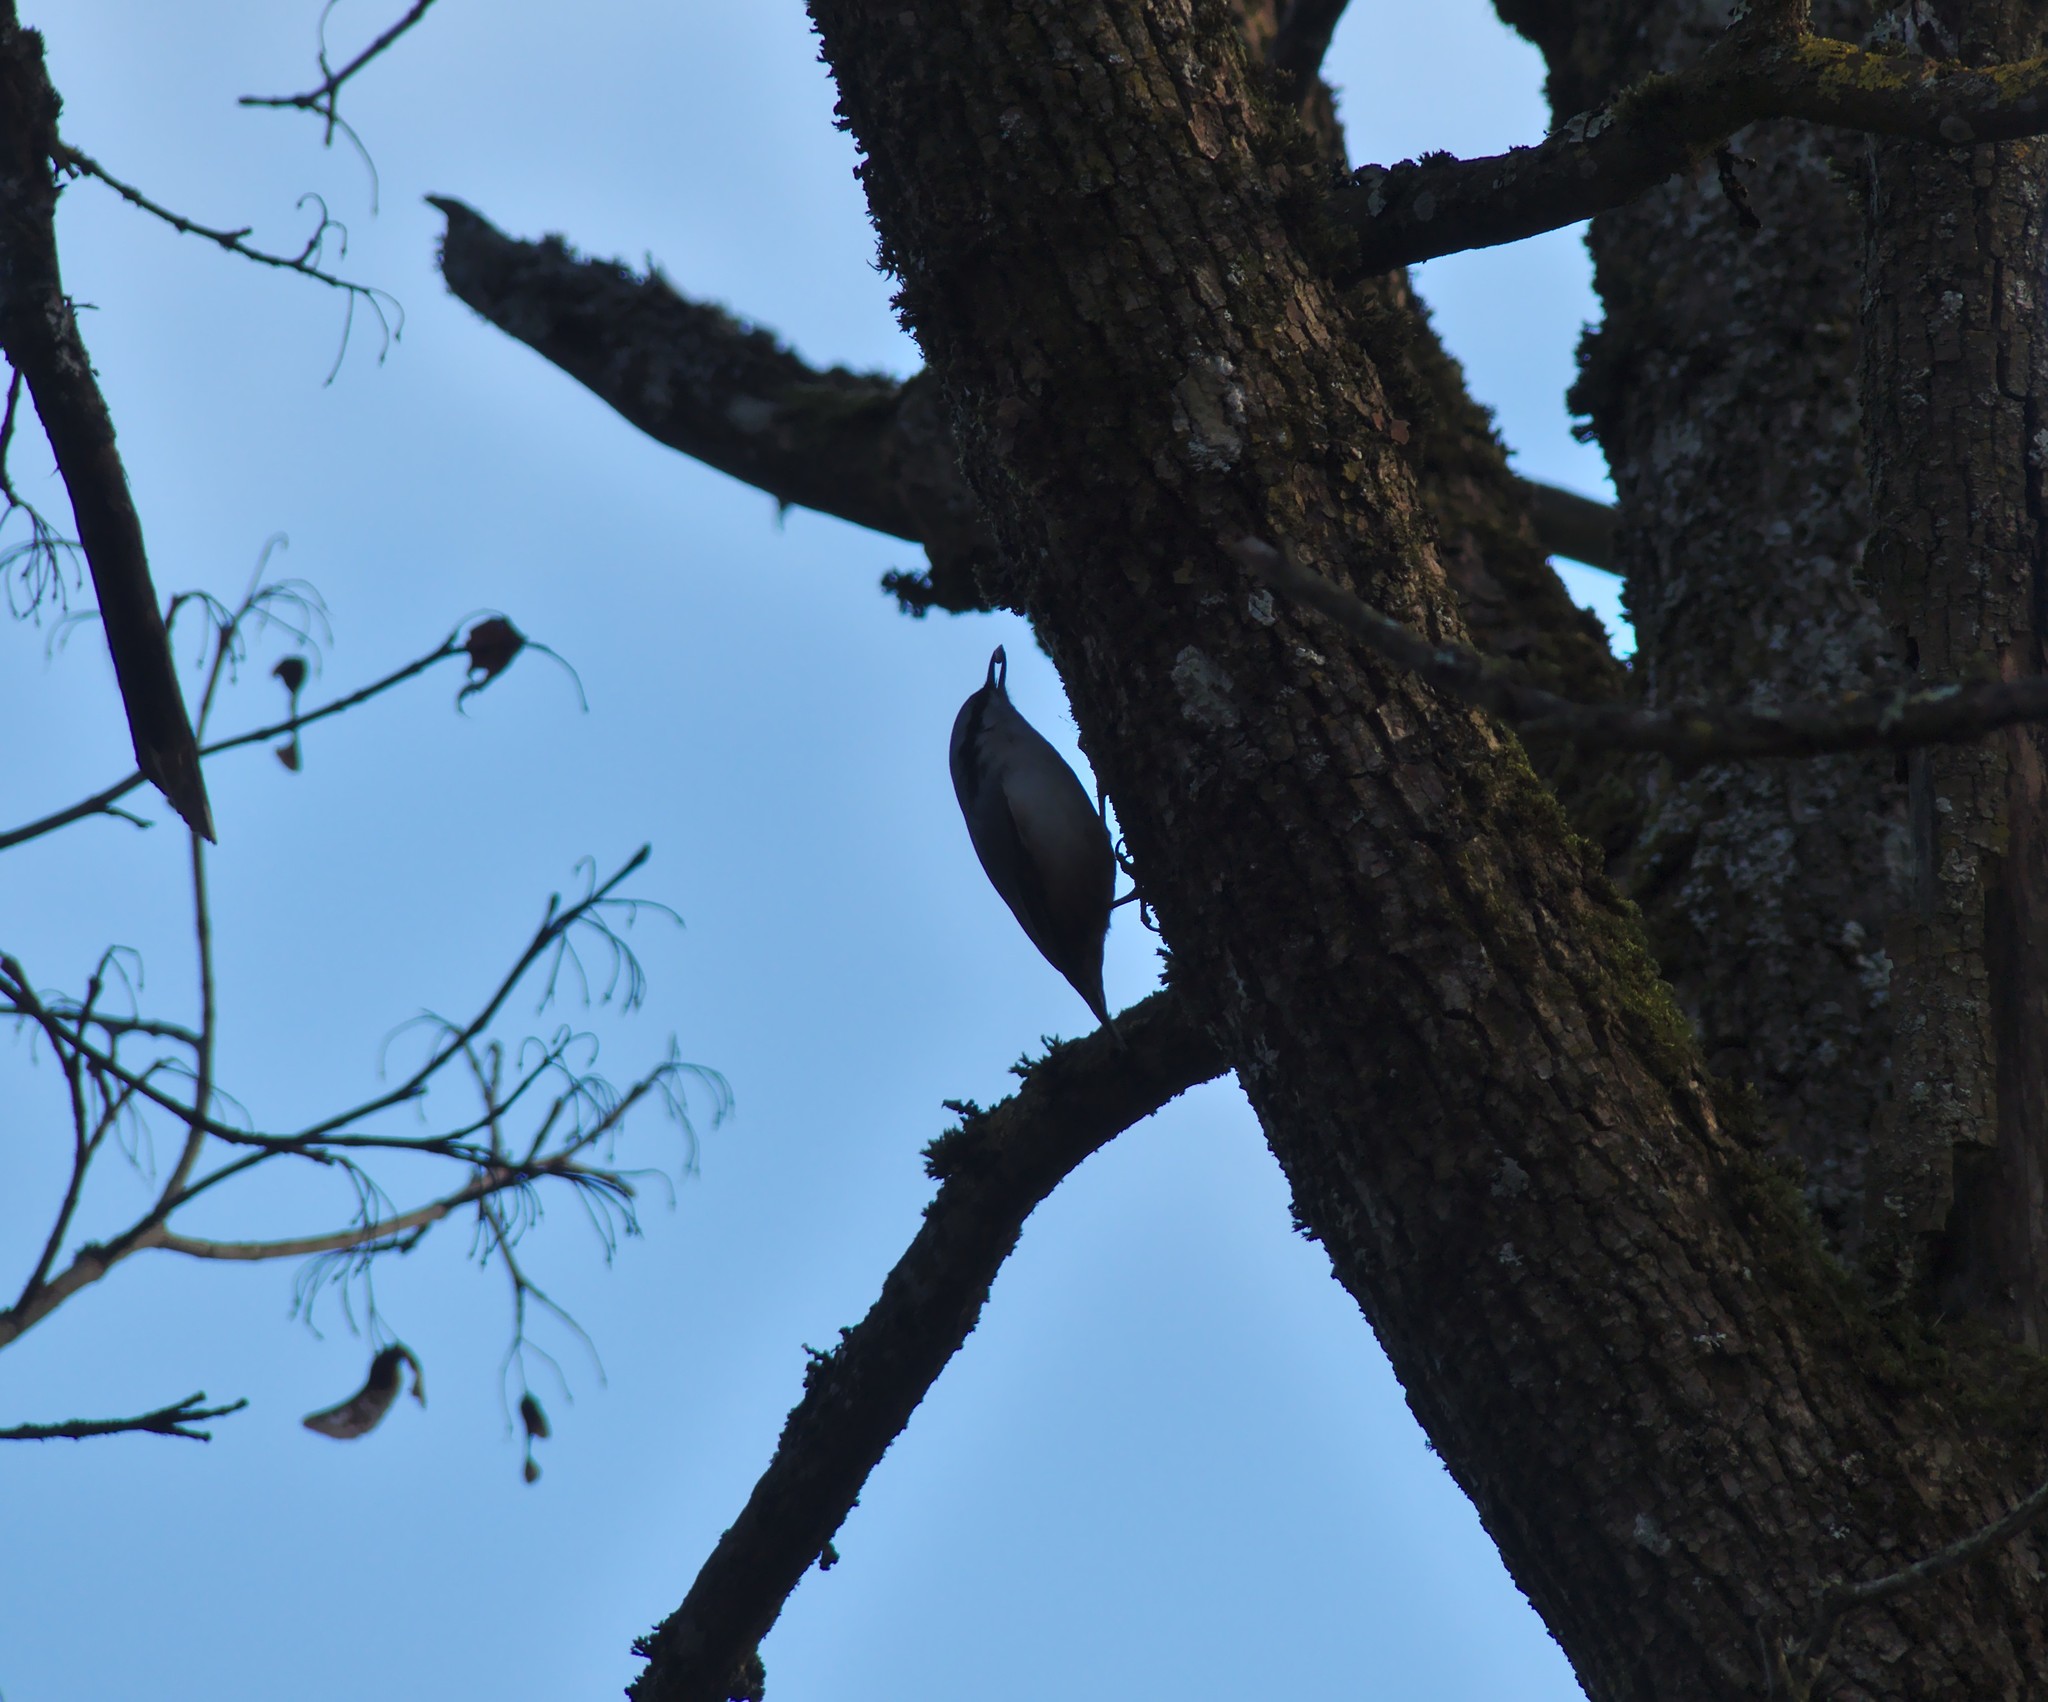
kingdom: Animalia
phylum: Chordata
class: Aves
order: Passeriformes
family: Sittidae
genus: Sitta
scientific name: Sitta europaea
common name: Eurasian nuthatch
